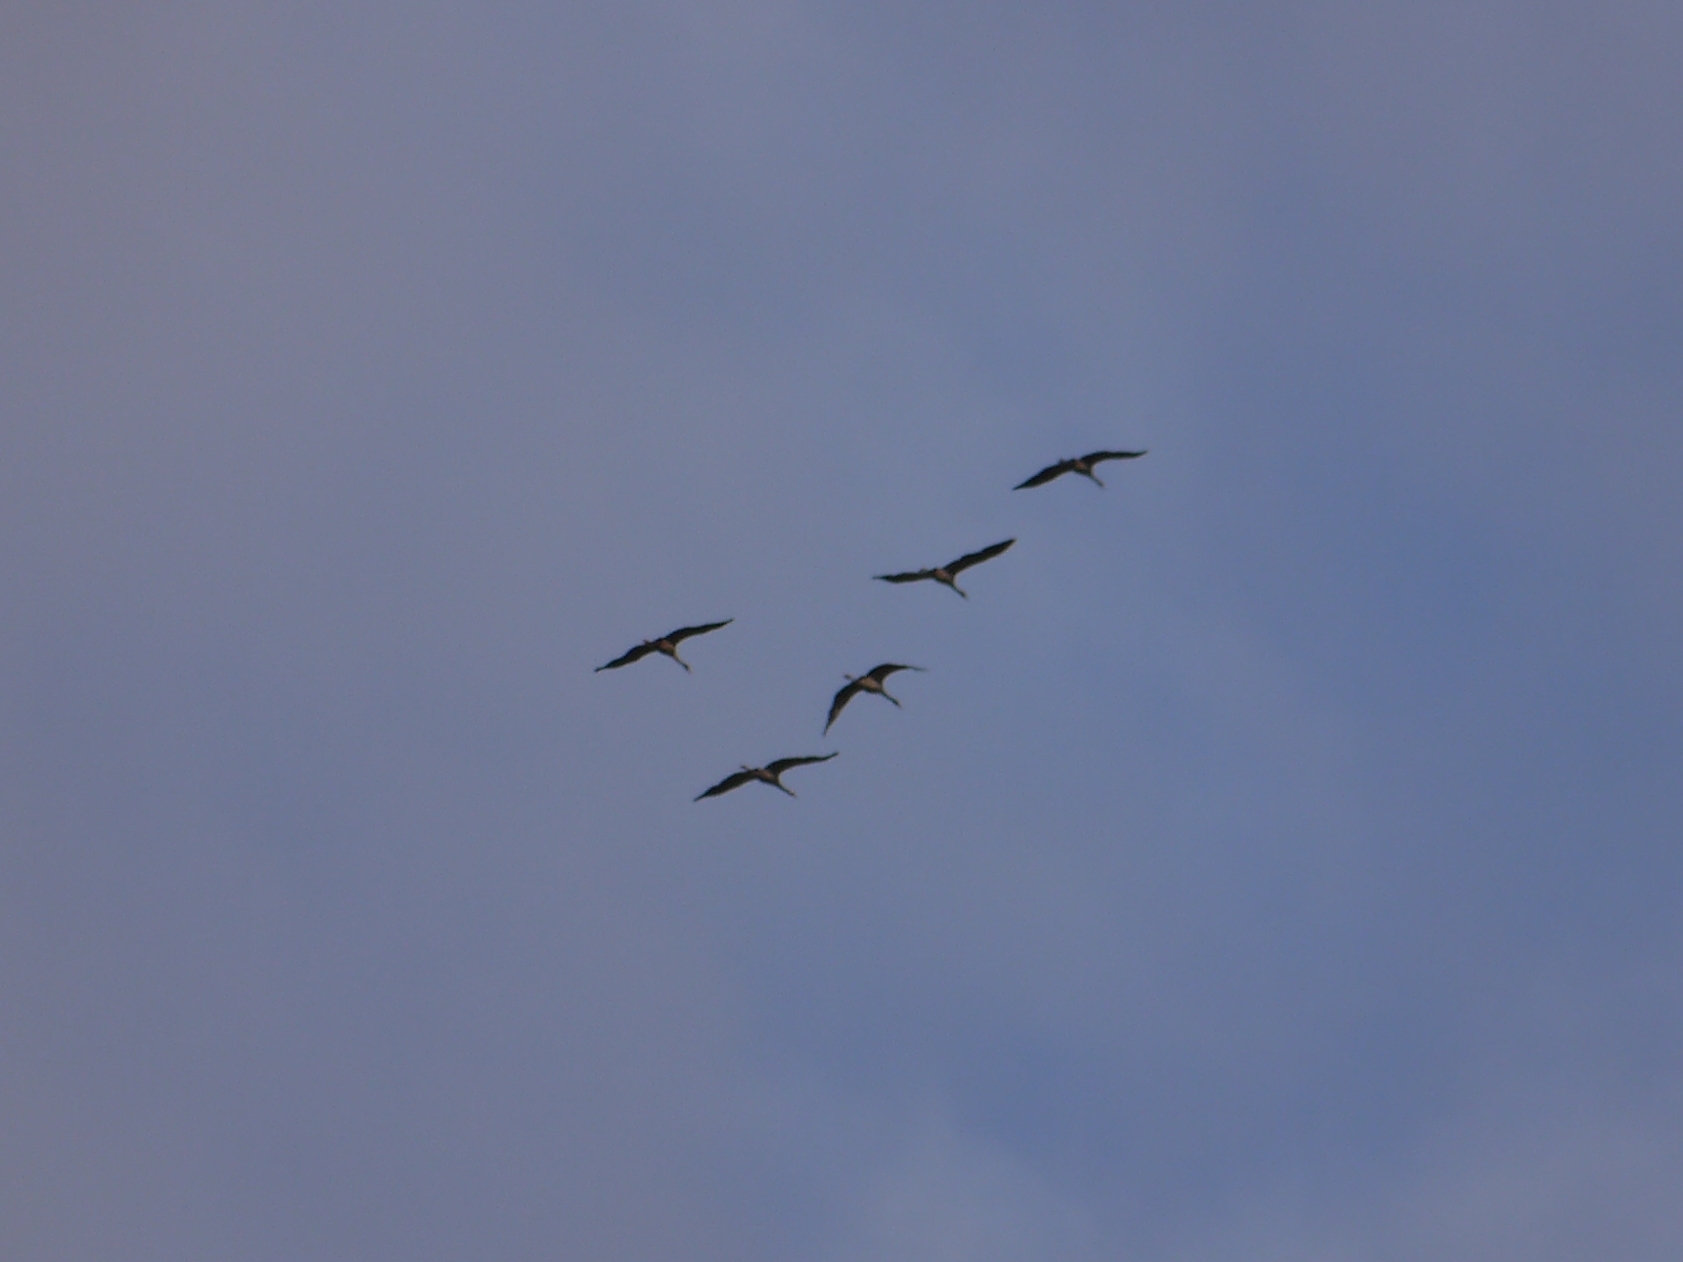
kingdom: Animalia
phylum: Chordata
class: Aves
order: Gruiformes
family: Gruidae
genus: Grus
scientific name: Grus grus
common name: Common crane
